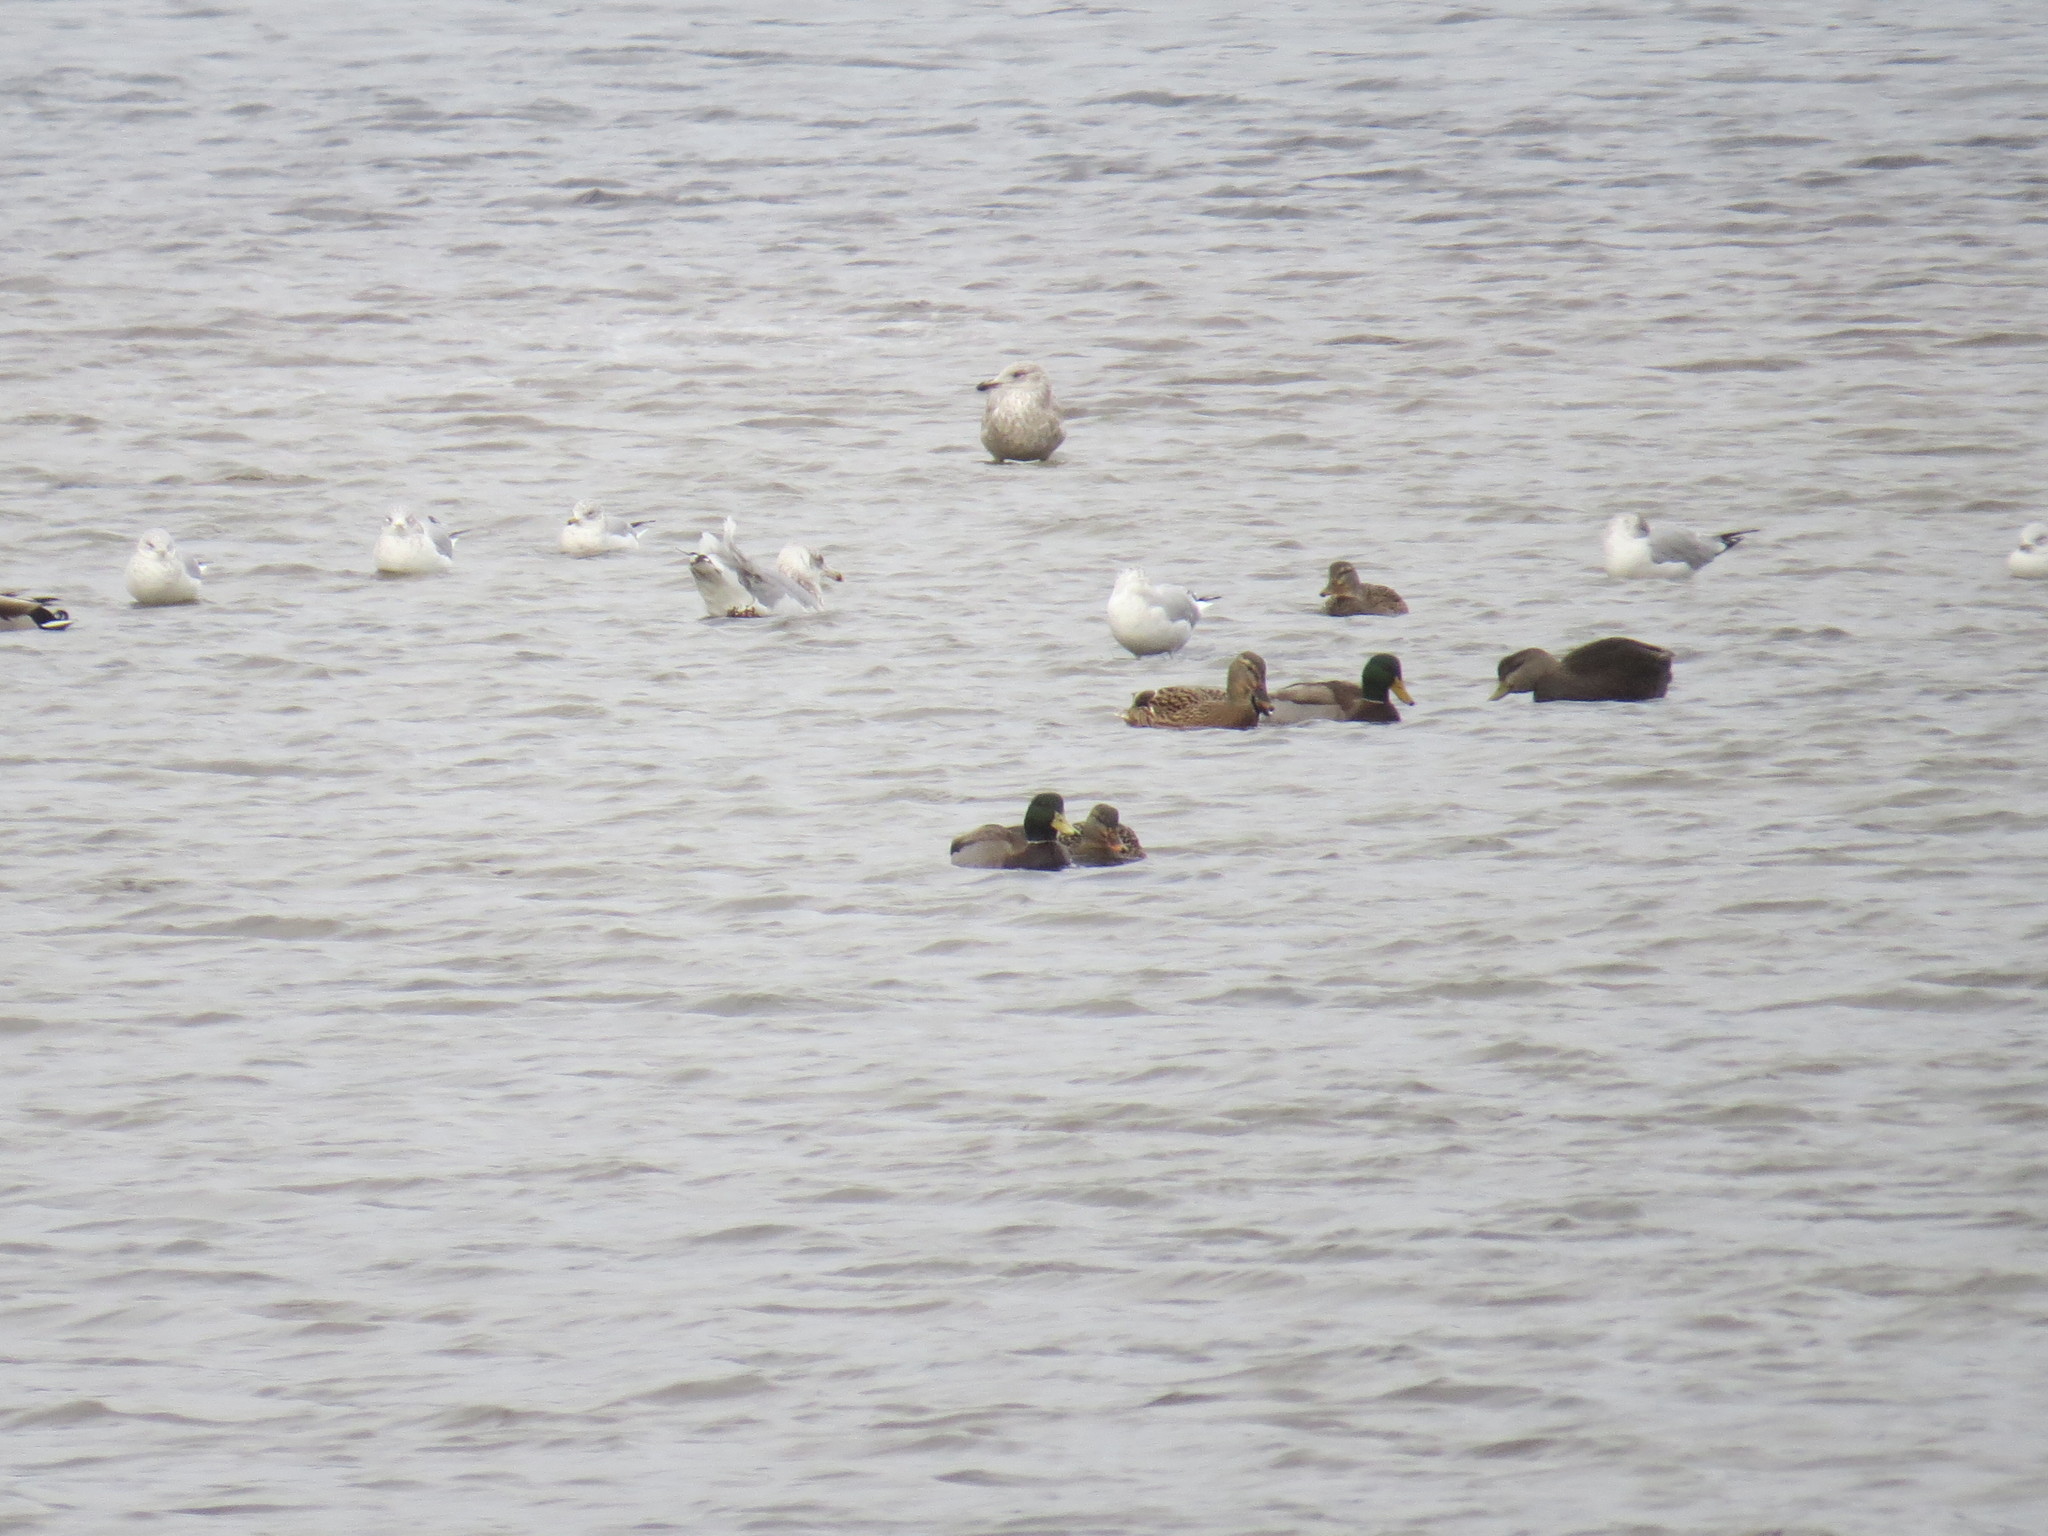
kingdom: Animalia
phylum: Chordata
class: Aves
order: Anseriformes
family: Anatidae
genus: Anas
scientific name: Anas platyrhynchos
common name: Mallard
